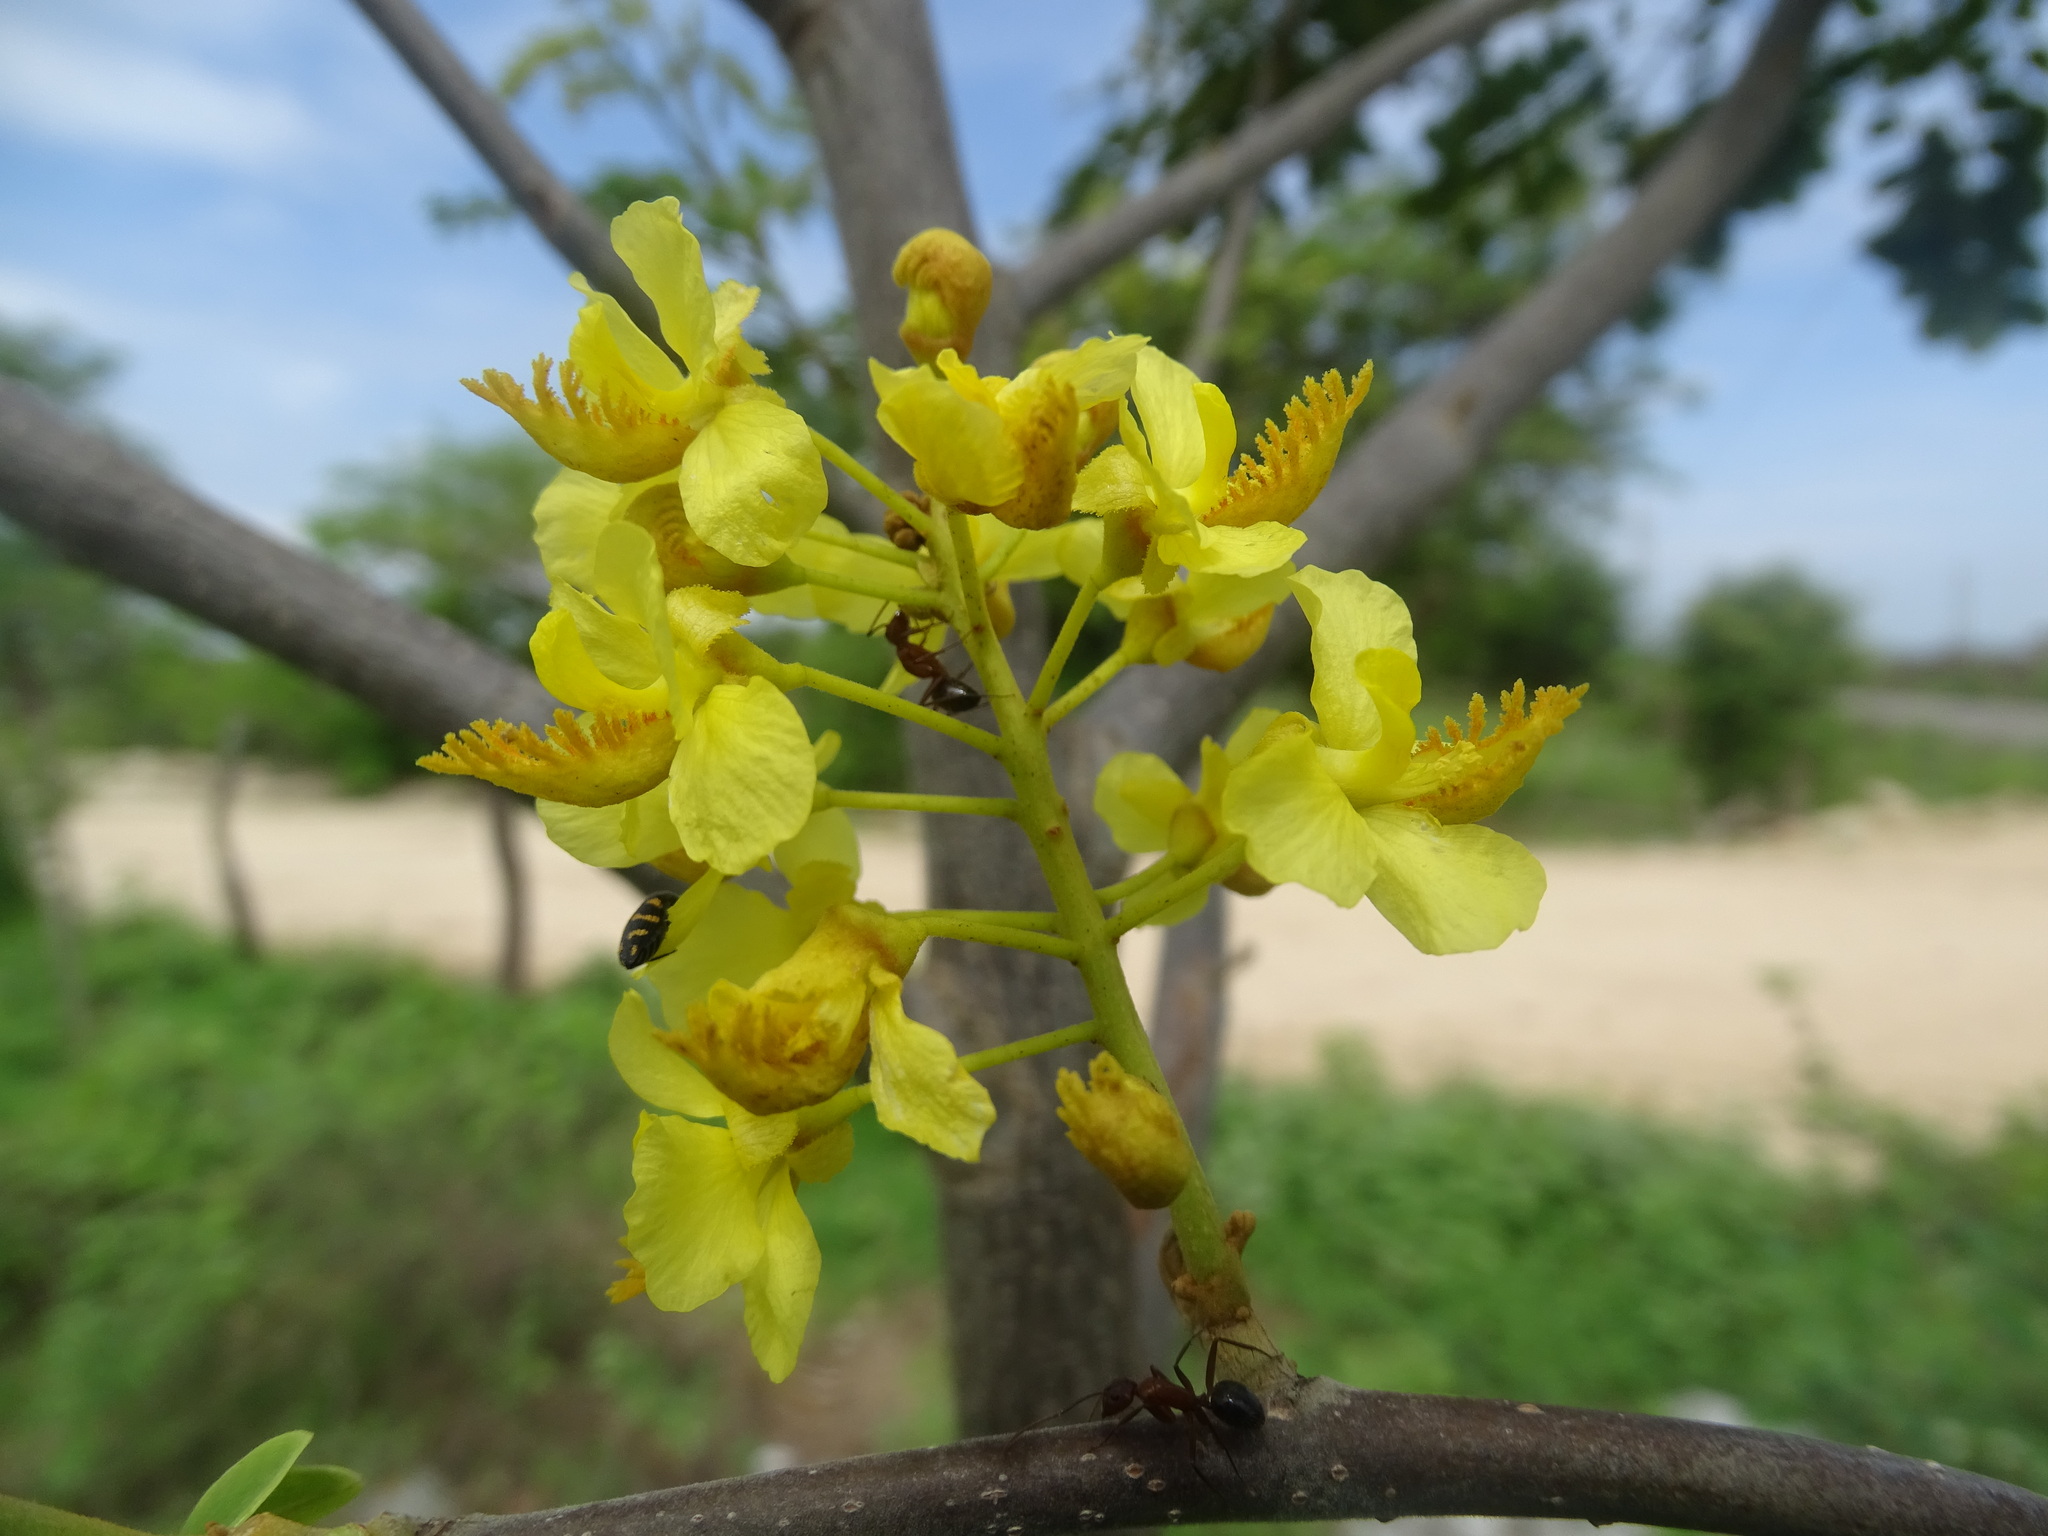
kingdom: Plantae
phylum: Tracheophyta
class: Magnoliopsida
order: Fabales
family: Fabaceae
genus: Coulteria
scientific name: Coulteria platyloba
